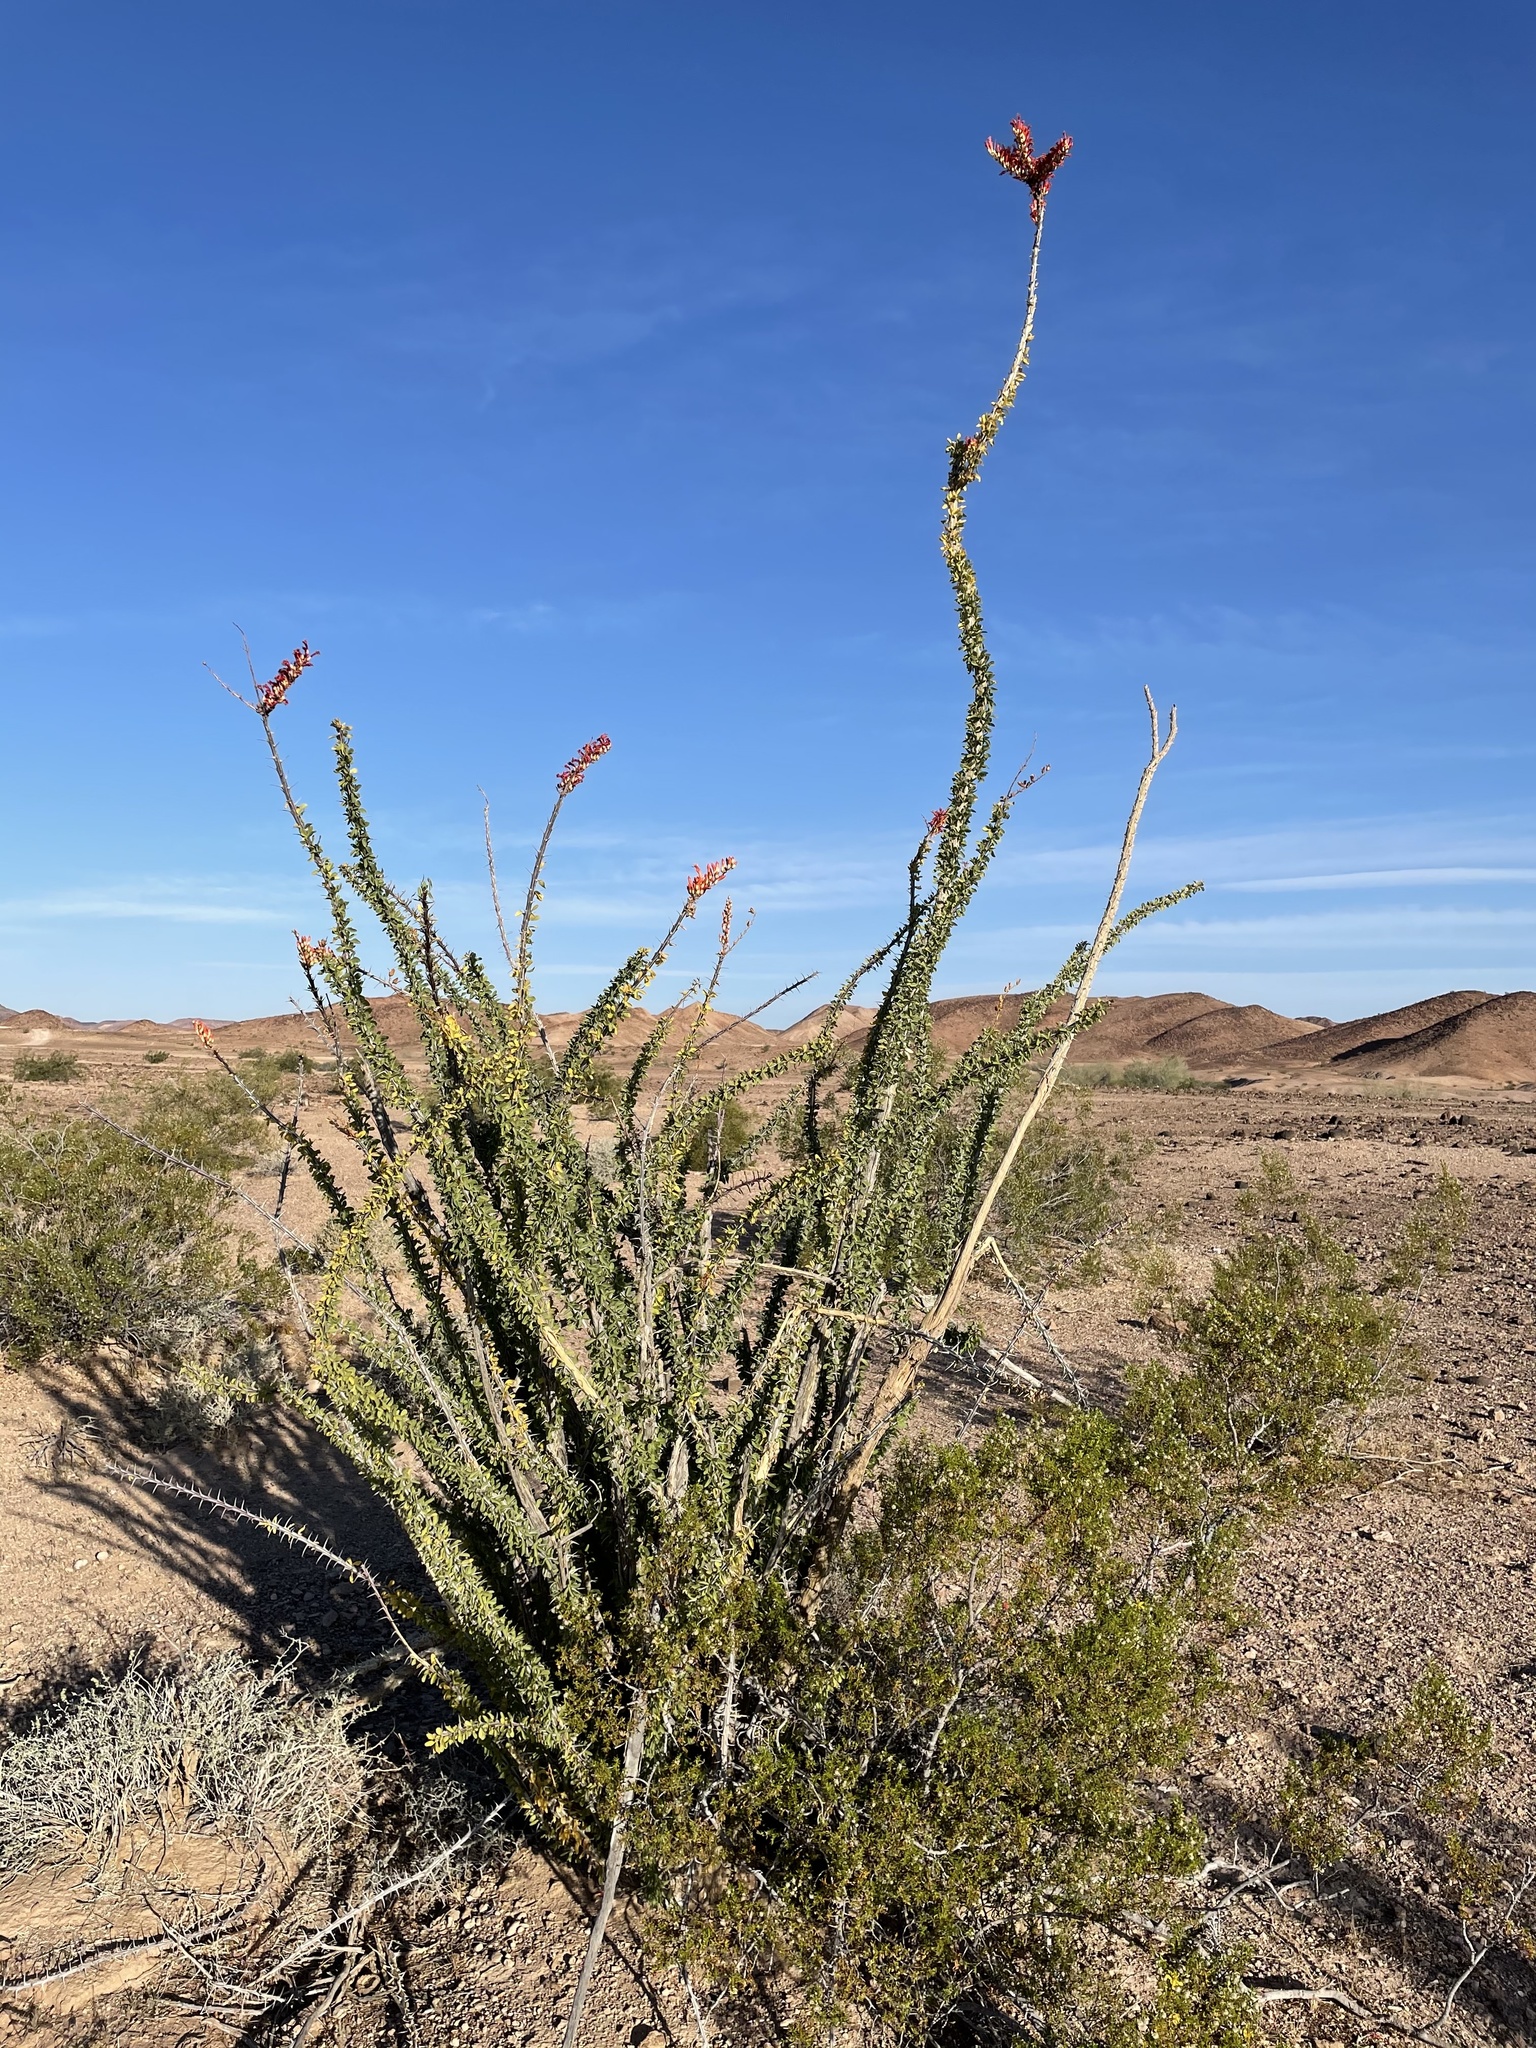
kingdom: Plantae
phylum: Tracheophyta
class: Magnoliopsida
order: Ericales
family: Fouquieriaceae
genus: Fouquieria
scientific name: Fouquieria splendens
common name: Vine-cactus
